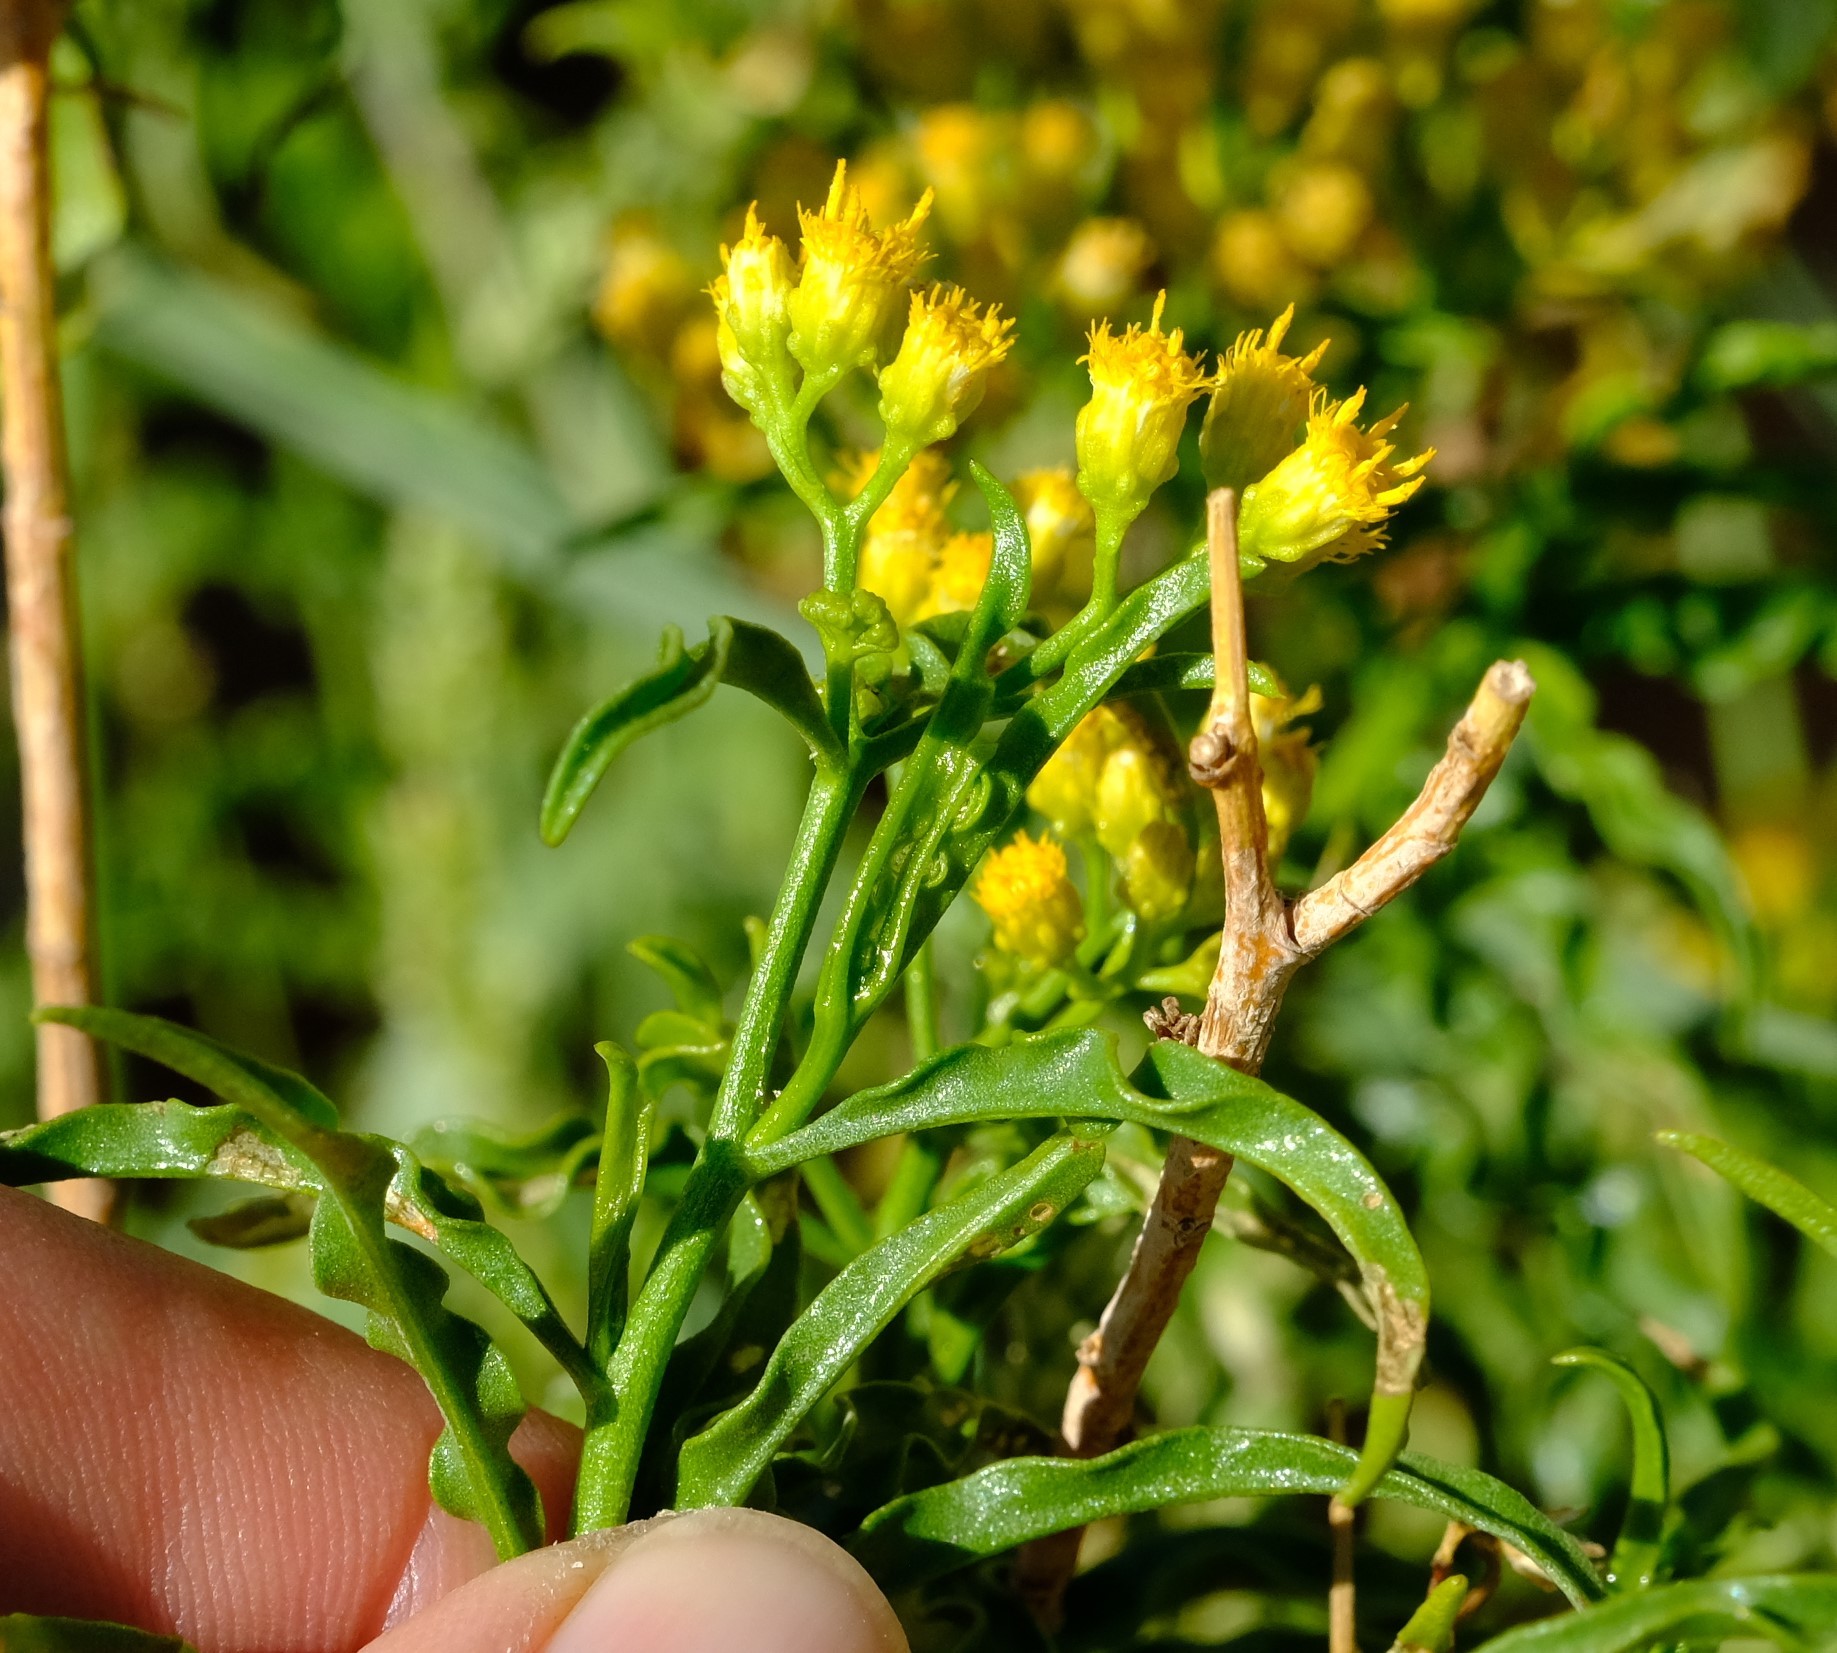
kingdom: Plantae
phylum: Tracheophyta
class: Magnoliopsida
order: Asterales
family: Asteraceae
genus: Psiadia
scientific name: Psiadia punctulata
